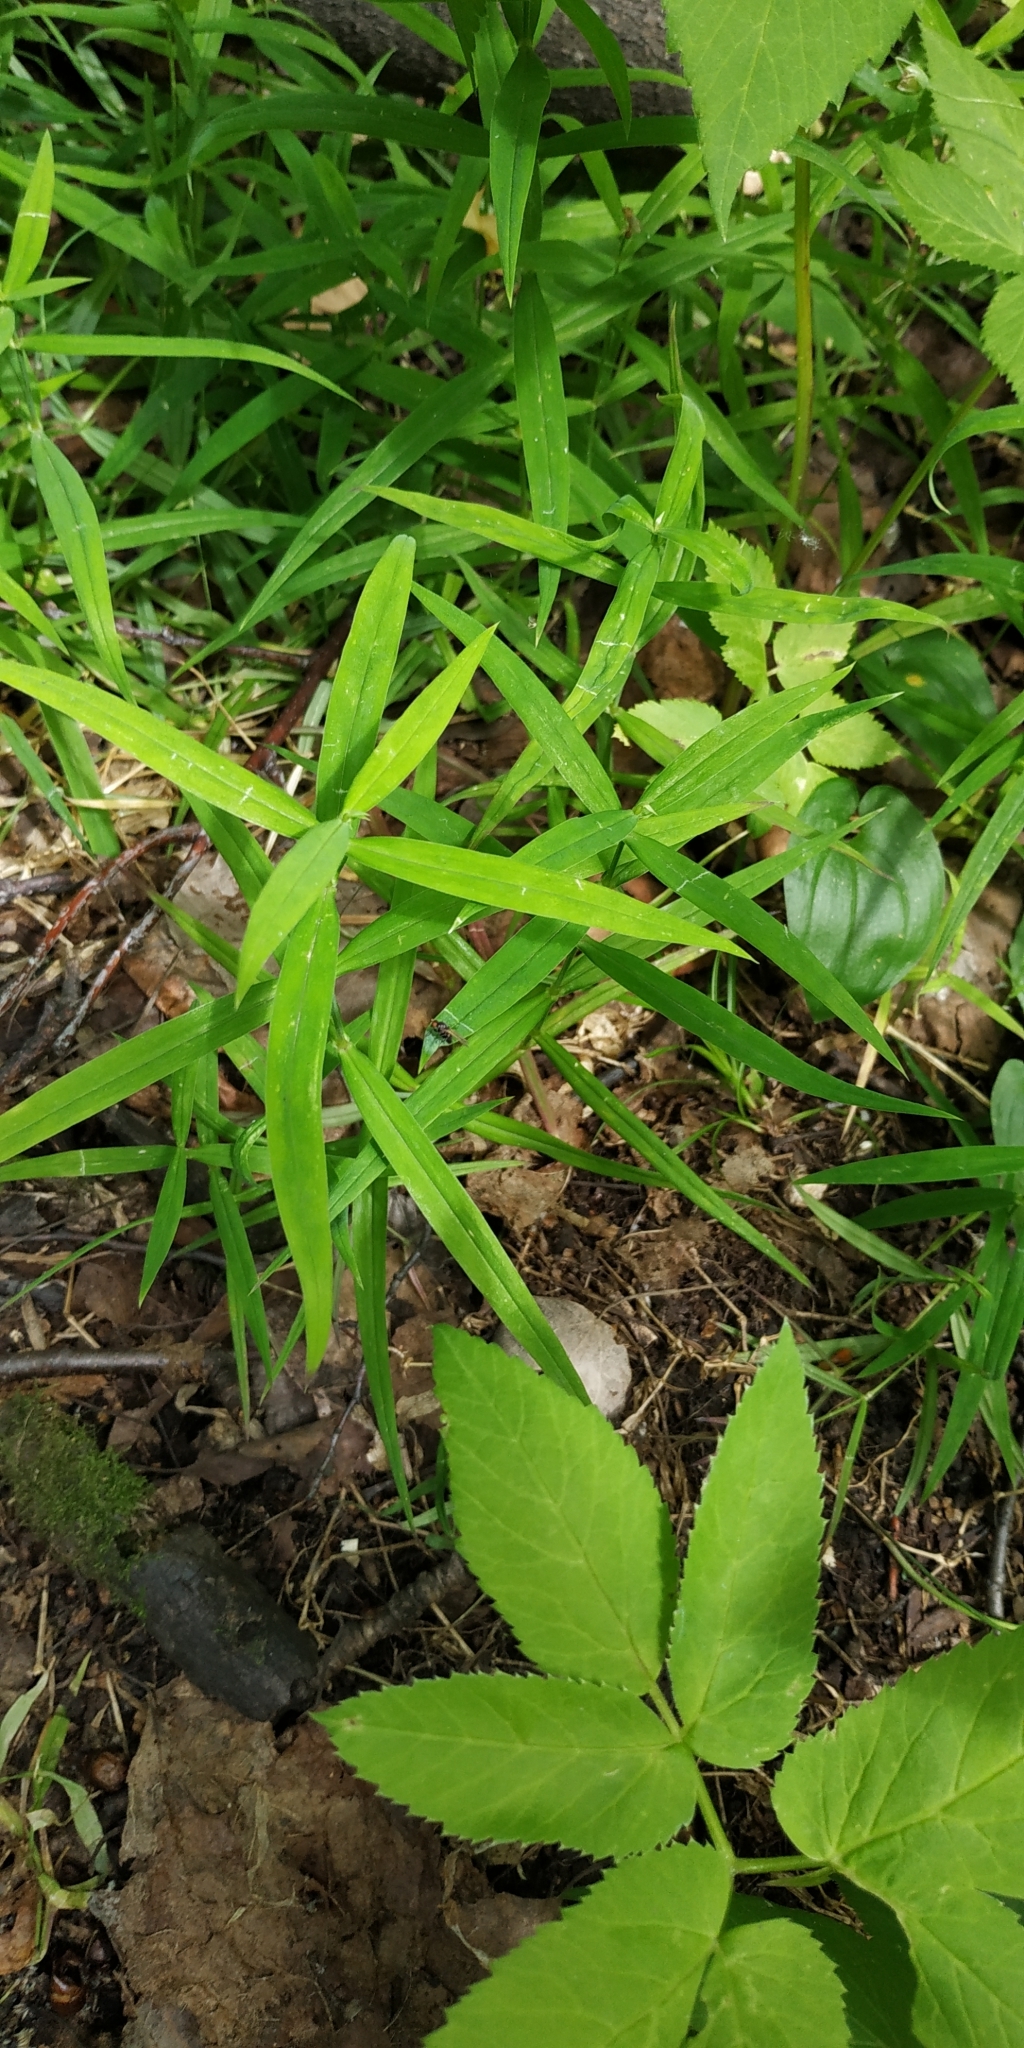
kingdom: Plantae
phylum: Tracheophyta
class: Magnoliopsida
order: Caryophyllales
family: Caryophyllaceae
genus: Rabelera
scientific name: Rabelera holostea
